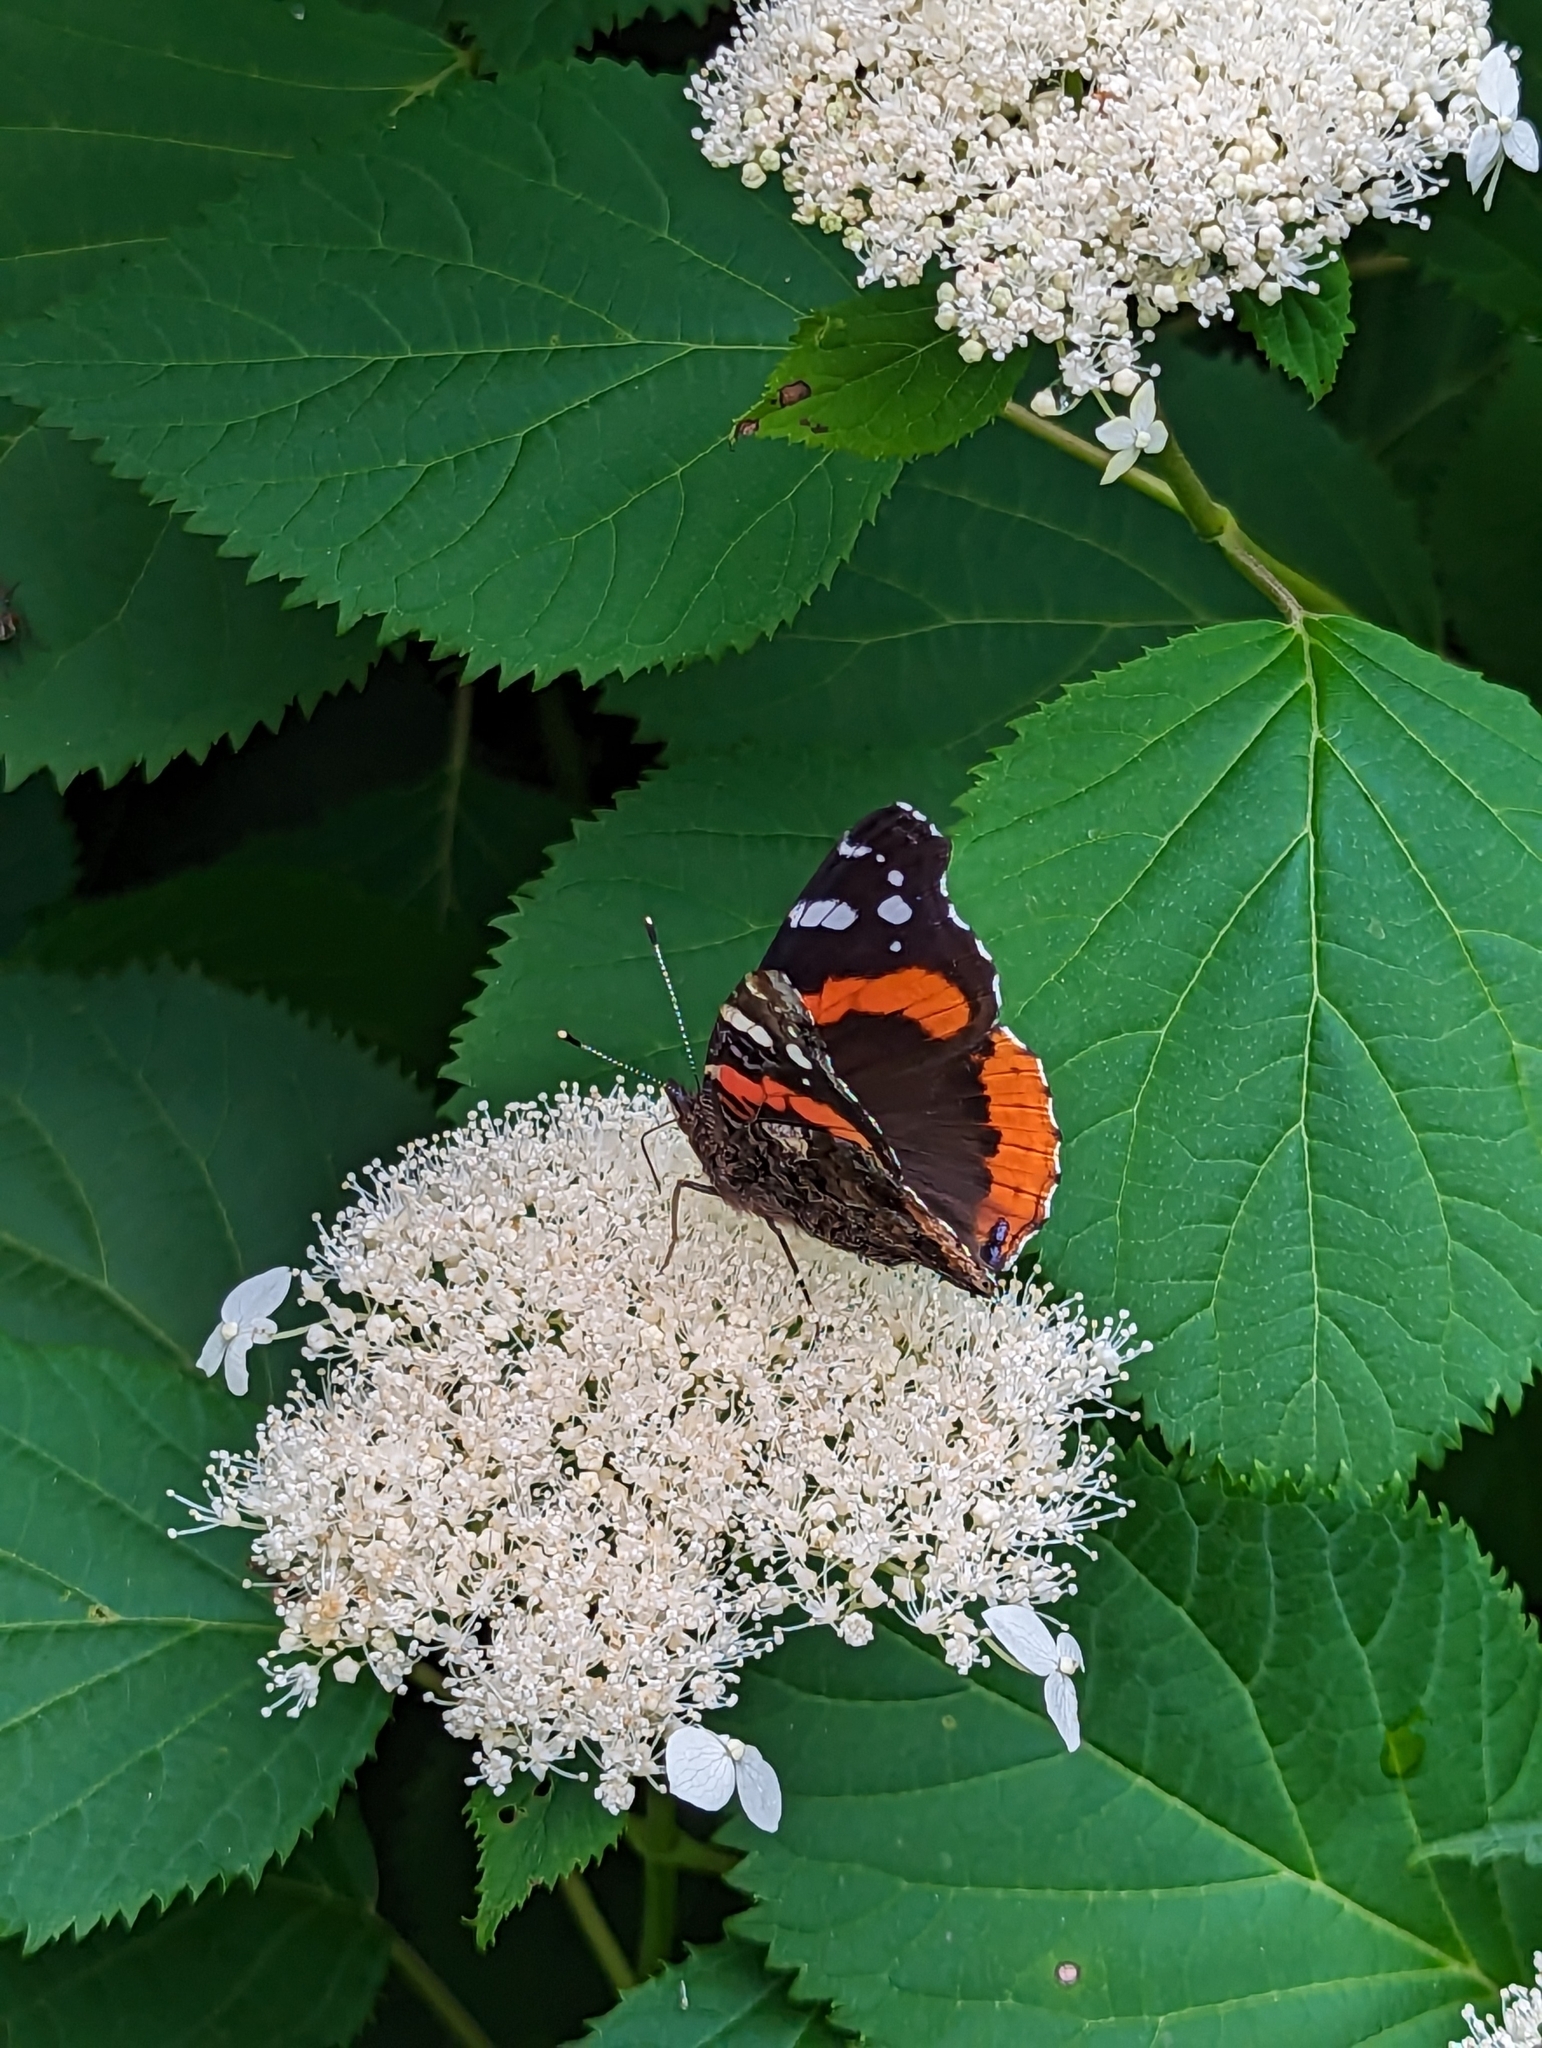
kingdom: Animalia
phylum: Arthropoda
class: Insecta
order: Lepidoptera
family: Nymphalidae
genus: Vanessa
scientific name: Vanessa atalanta
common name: Red admiral
